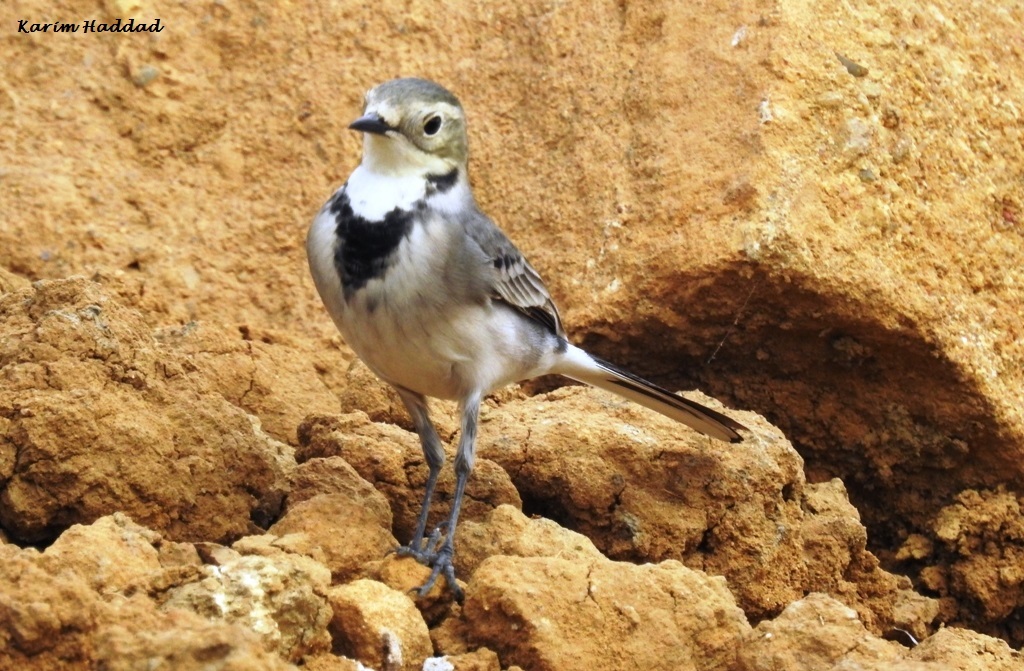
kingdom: Animalia
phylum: Chordata
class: Aves
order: Passeriformes
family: Motacillidae
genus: Motacilla
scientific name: Motacilla alba
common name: White wagtail
